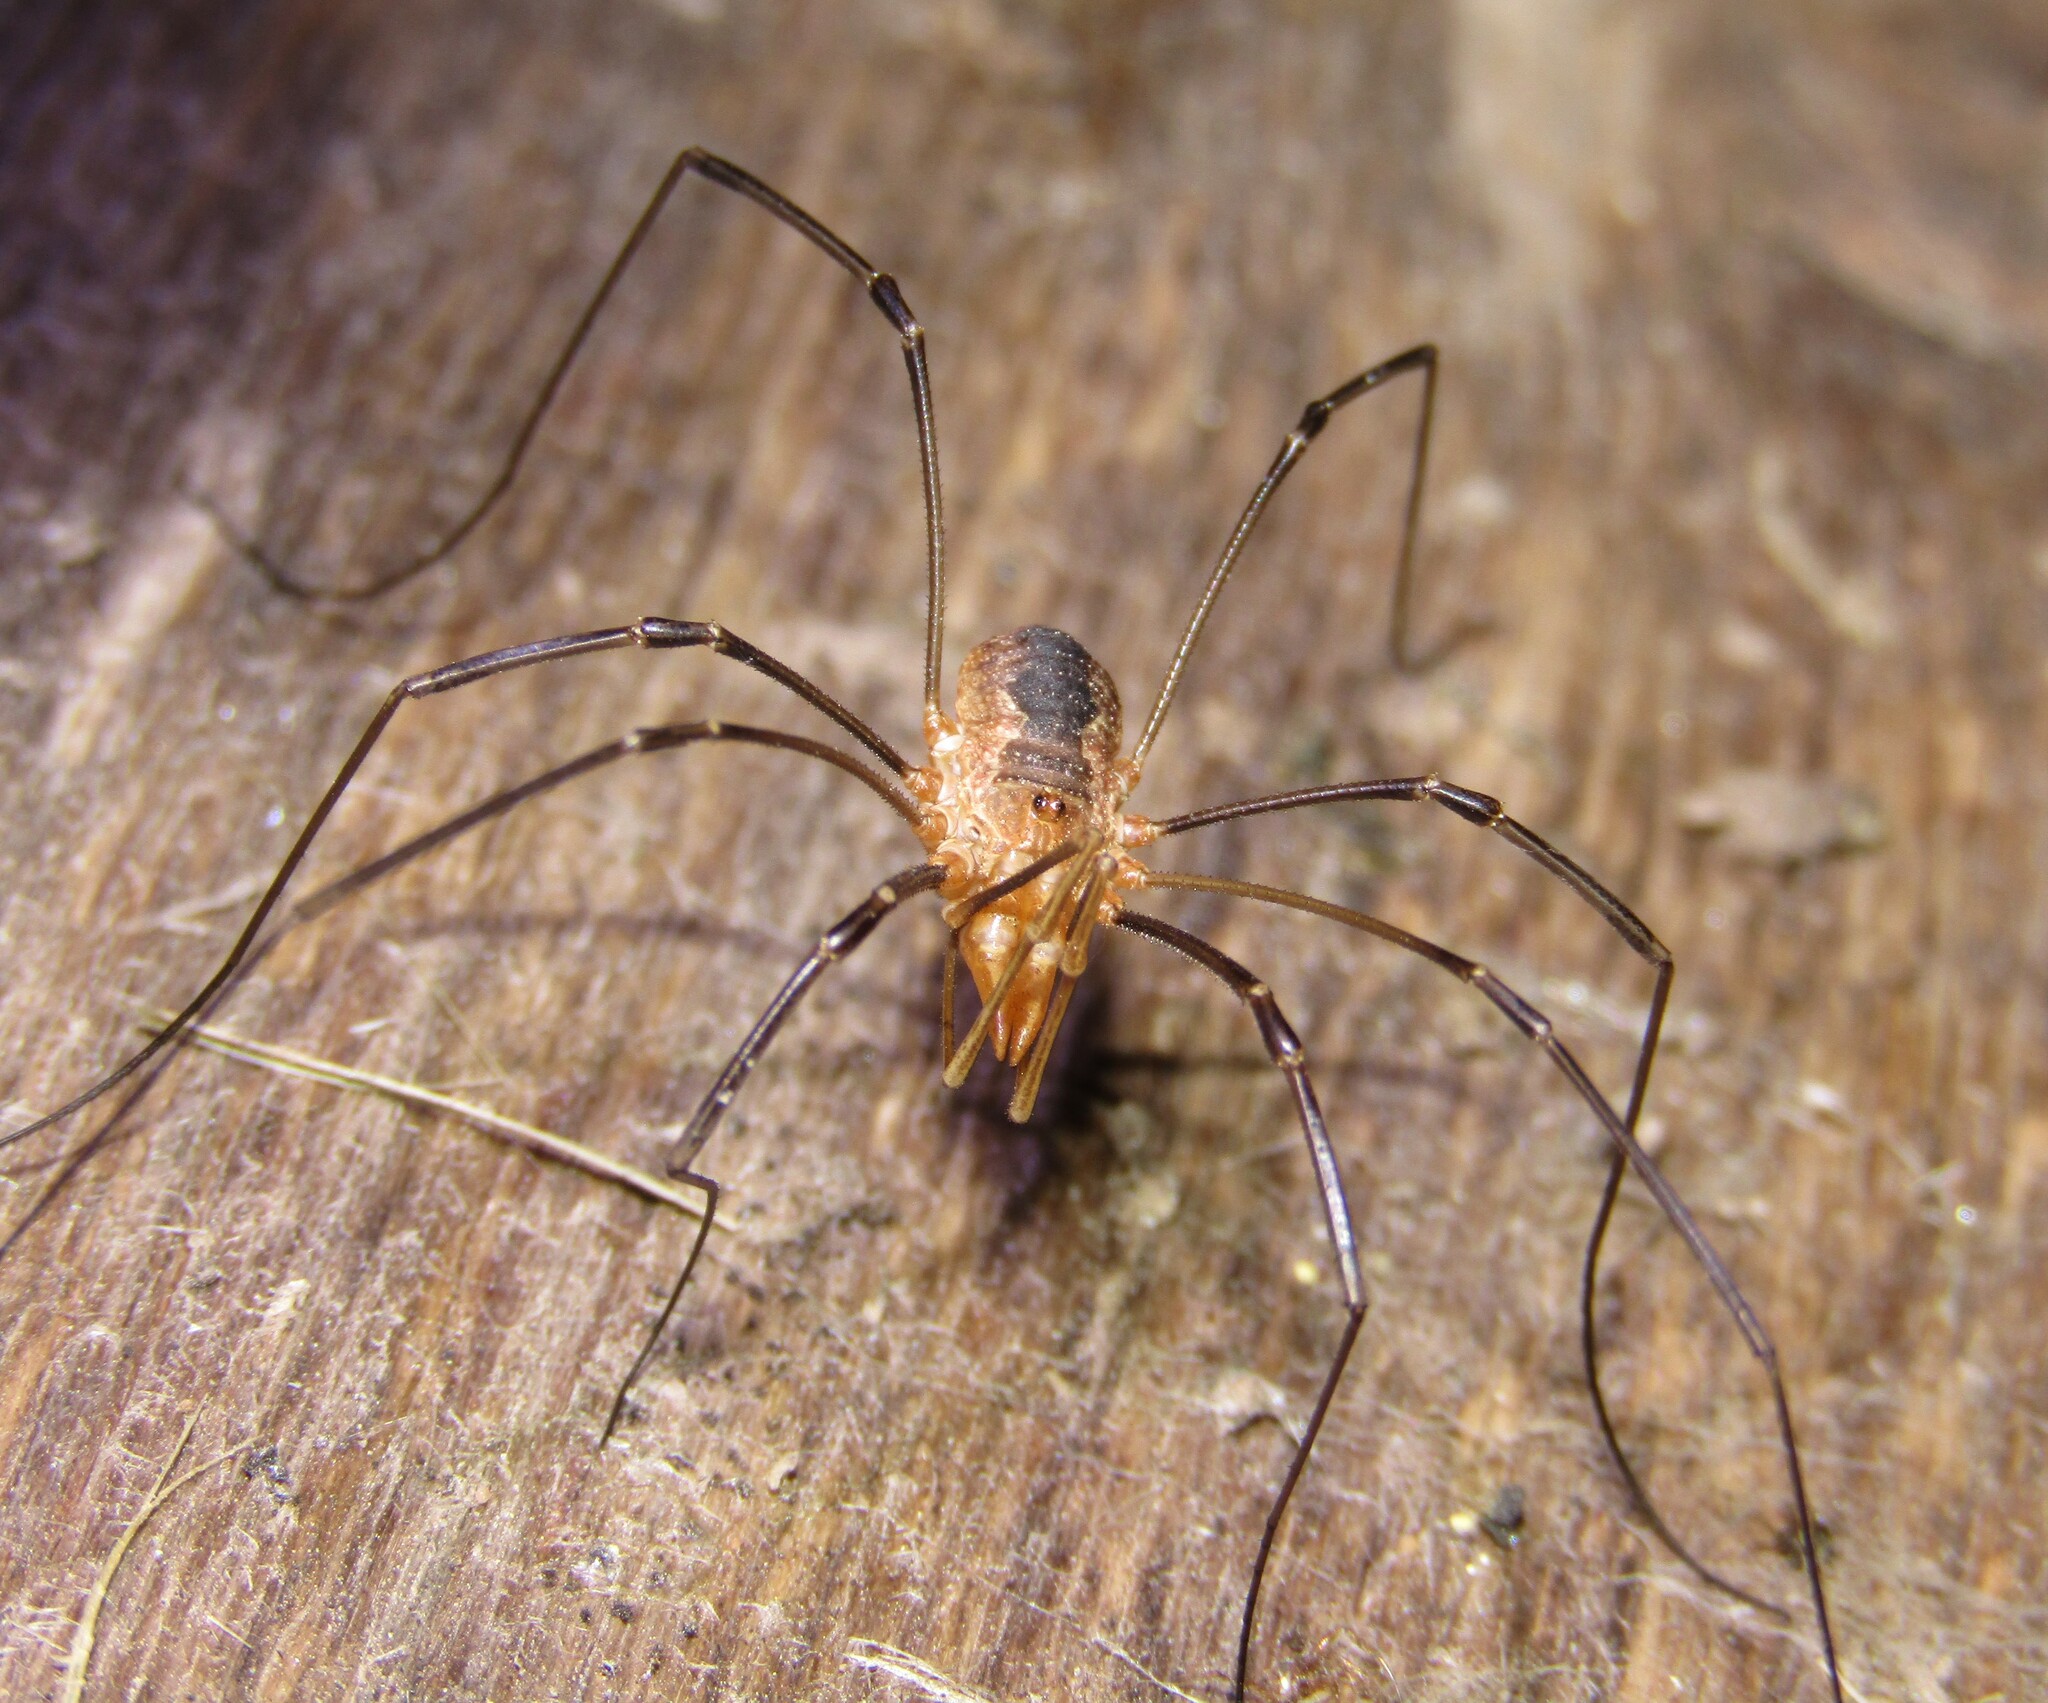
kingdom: Animalia
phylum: Arthropoda
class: Arachnida
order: Opiliones
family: Phalangiidae
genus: Phalangium
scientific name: Phalangium opilio
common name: Daddy longleg
